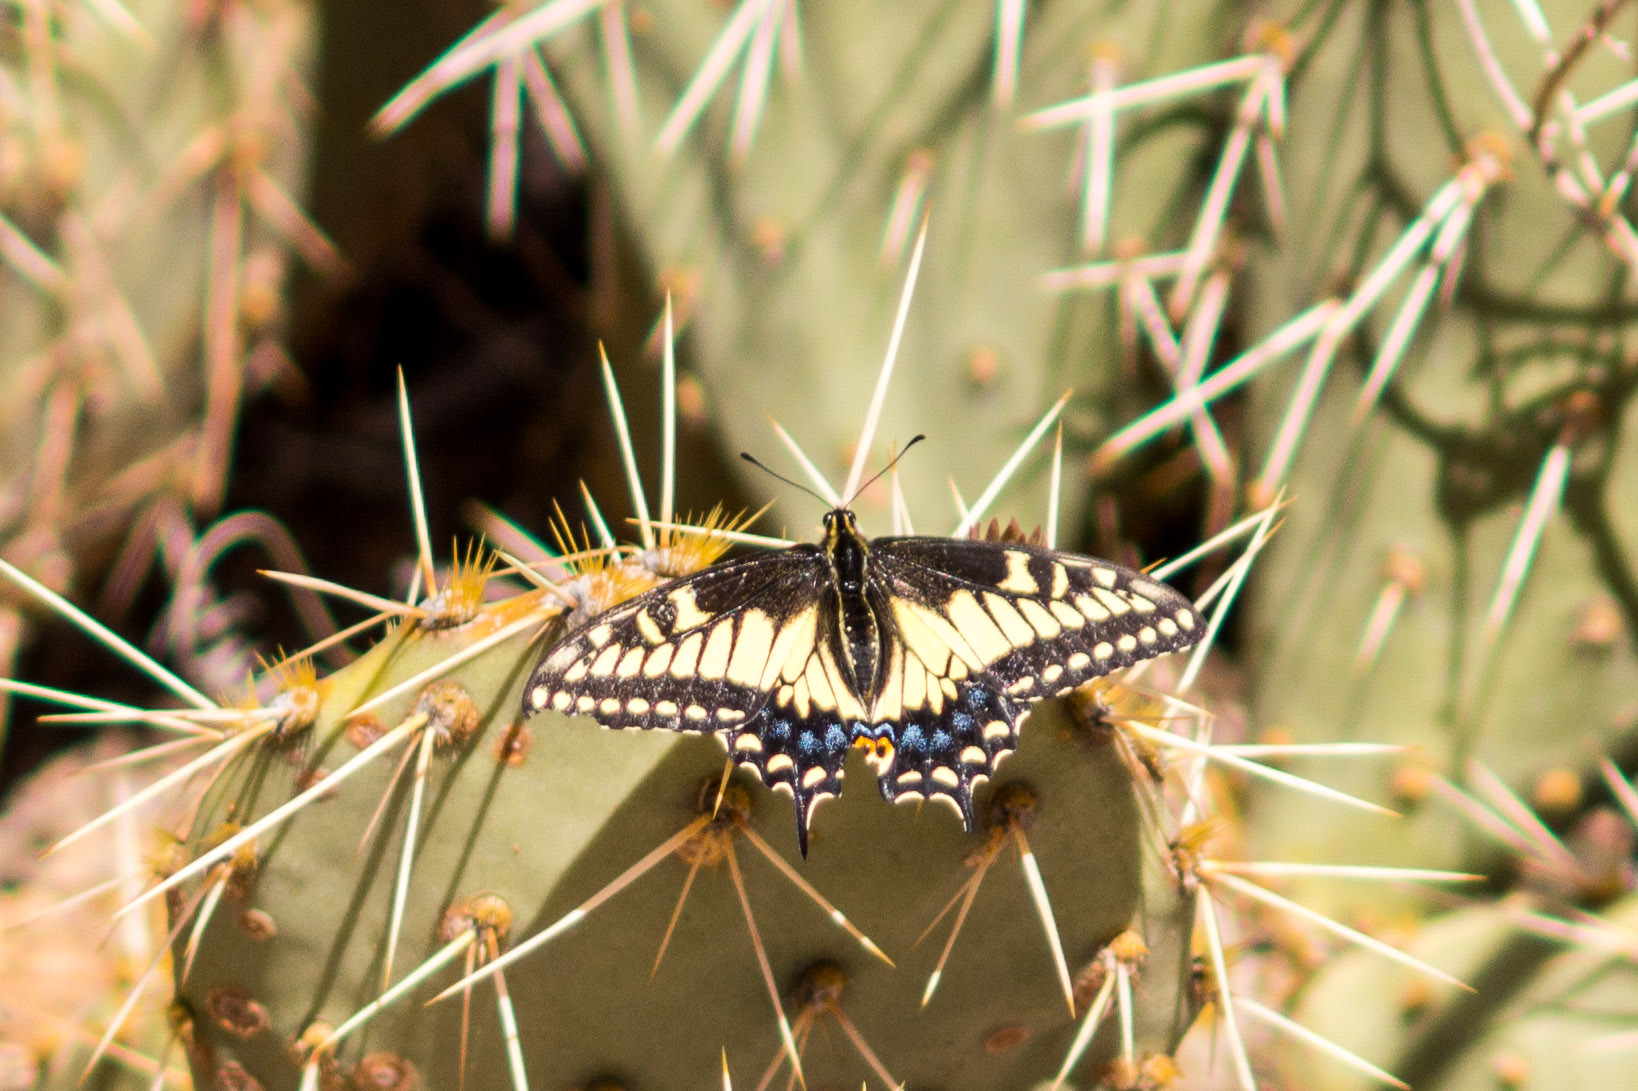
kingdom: Animalia
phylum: Arthropoda
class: Insecta
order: Lepidoptera
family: Papilionidae
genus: Papilio
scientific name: Papilio polyxenes
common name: Black swallowtail
